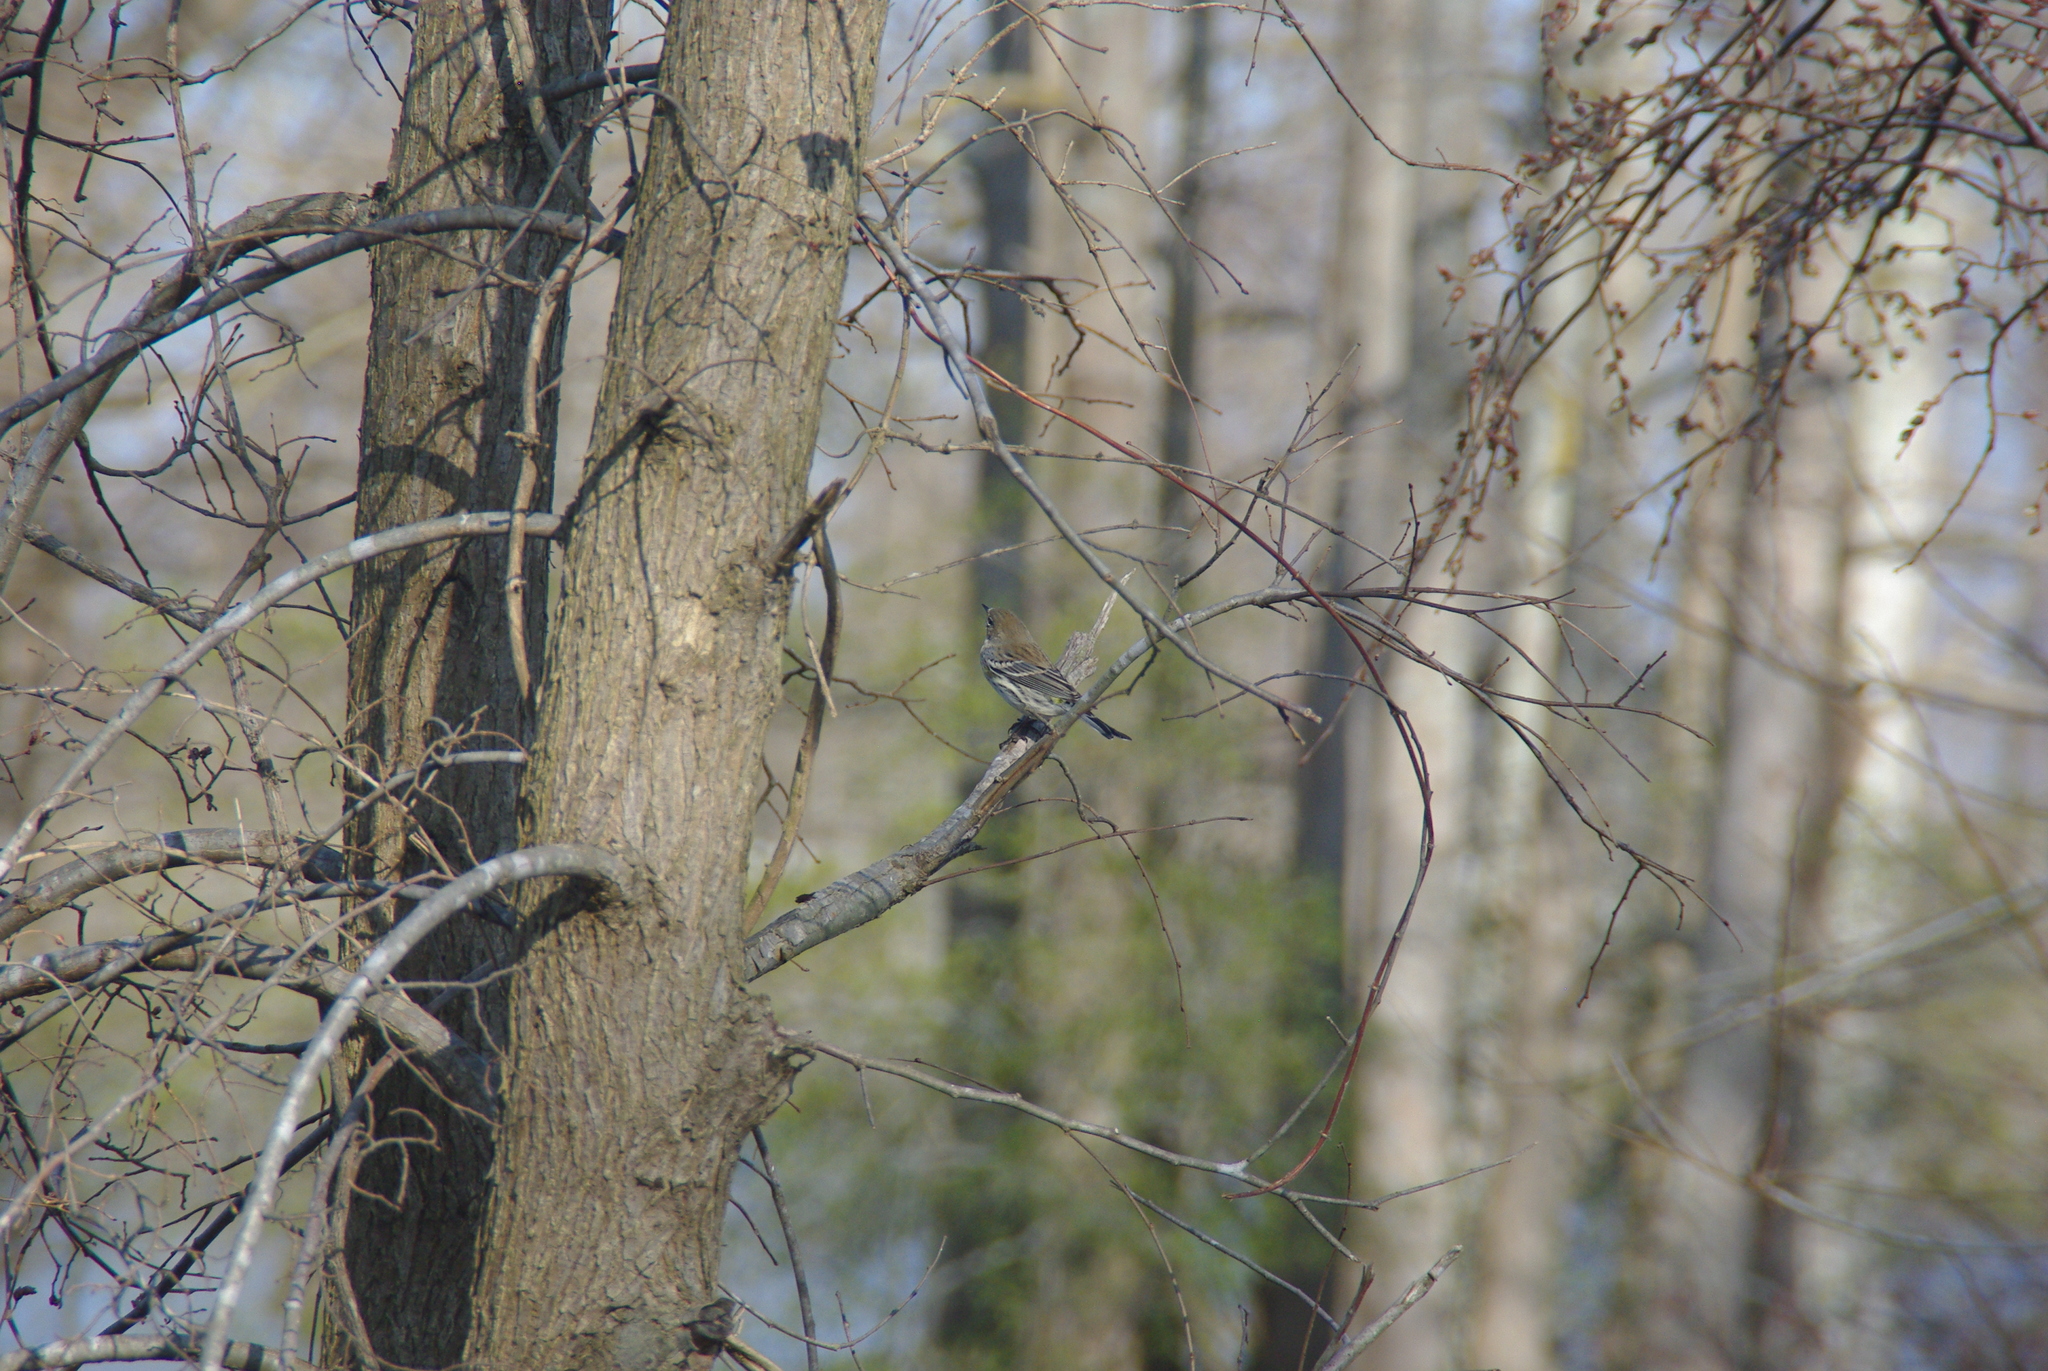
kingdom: Animalia
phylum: Chordata
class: Aves
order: Passeriformes
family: Parulidae
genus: Setophaga
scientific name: Setophaga coronata
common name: Myrtle warbler
